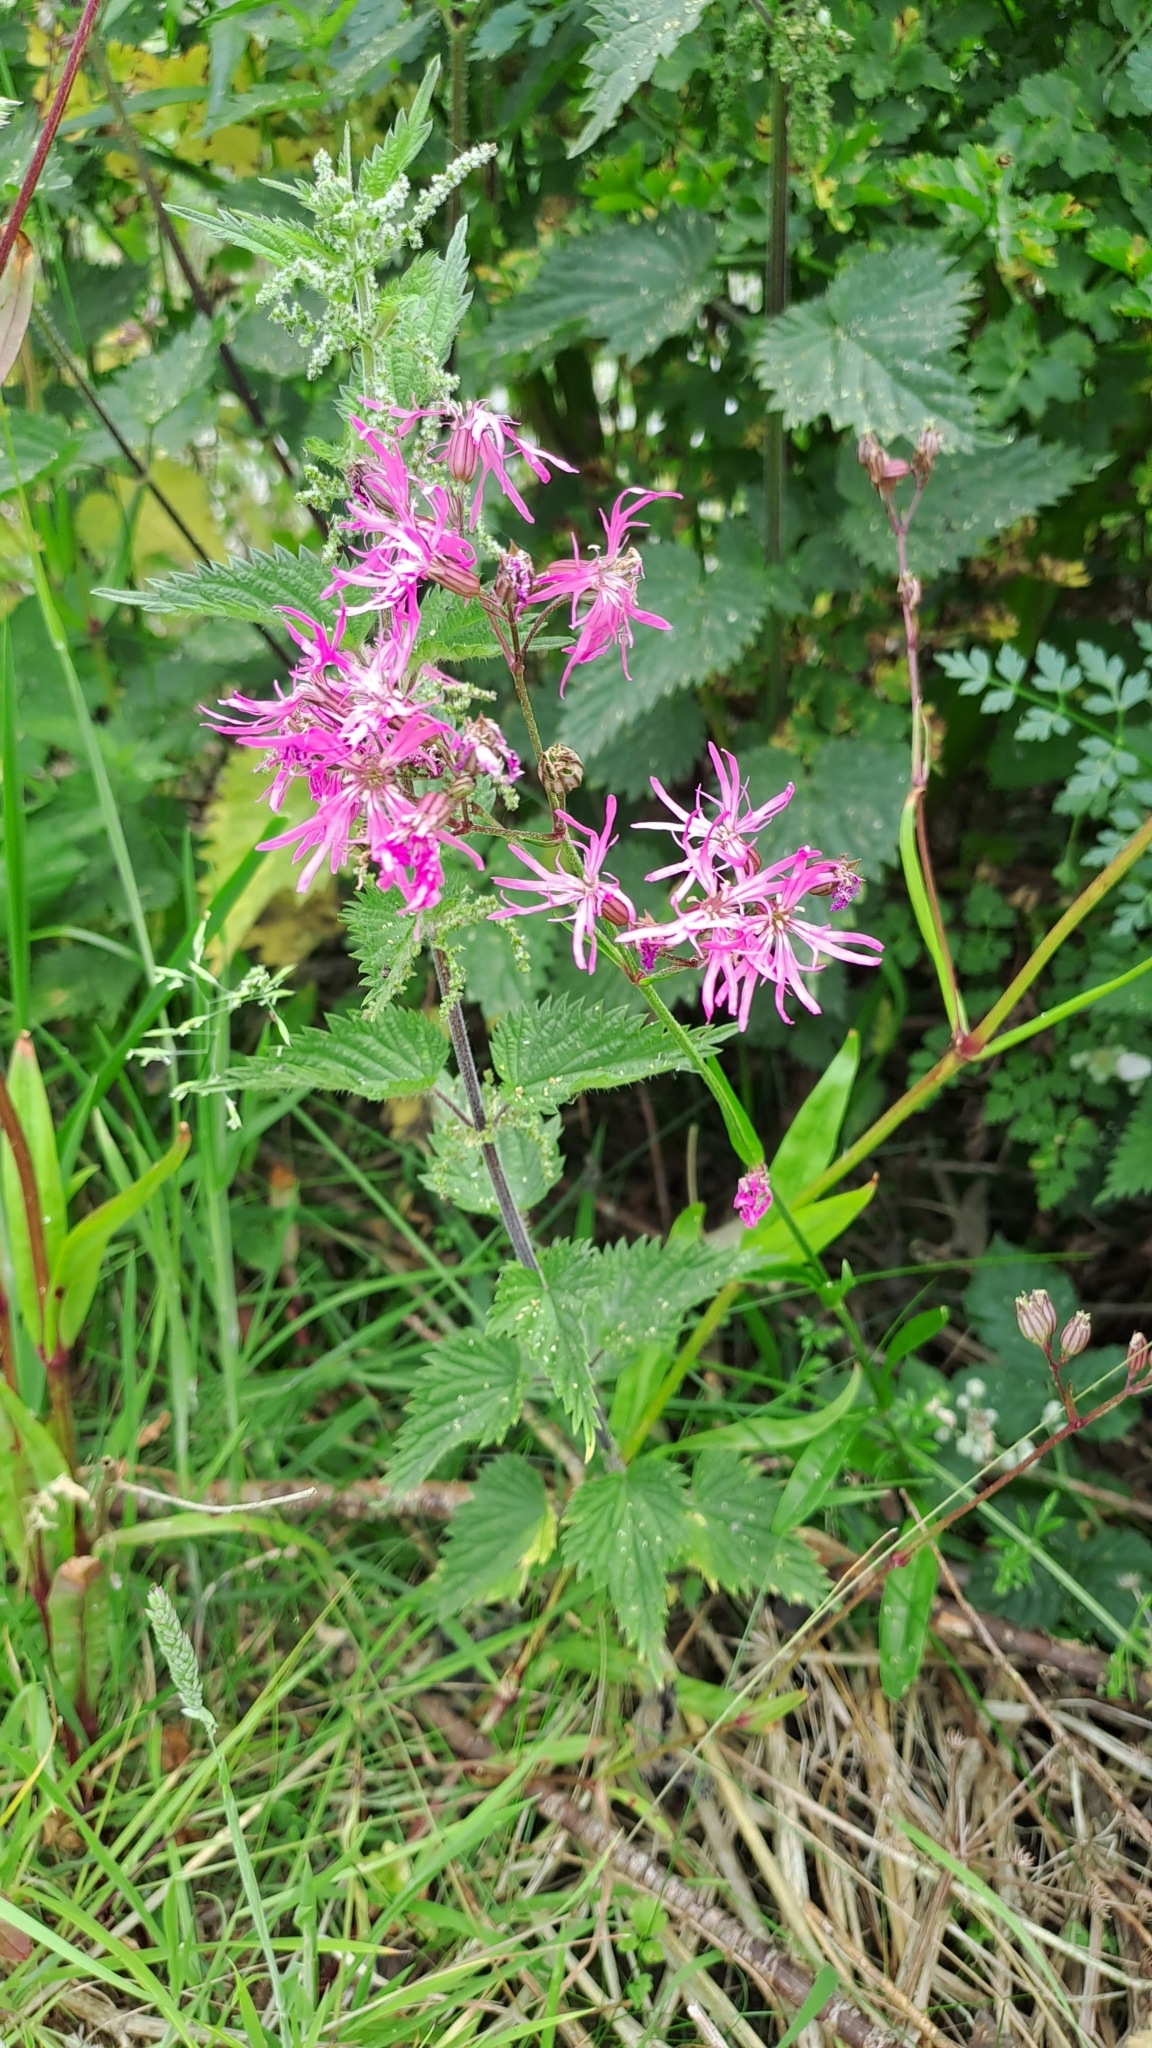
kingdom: Plantae
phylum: Tracheophyta
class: Magnoliopsida
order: Caryophyllales
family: Caryophyllaceae
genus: Silene
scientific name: Silene flos-cuculi
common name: Ragged-robin
